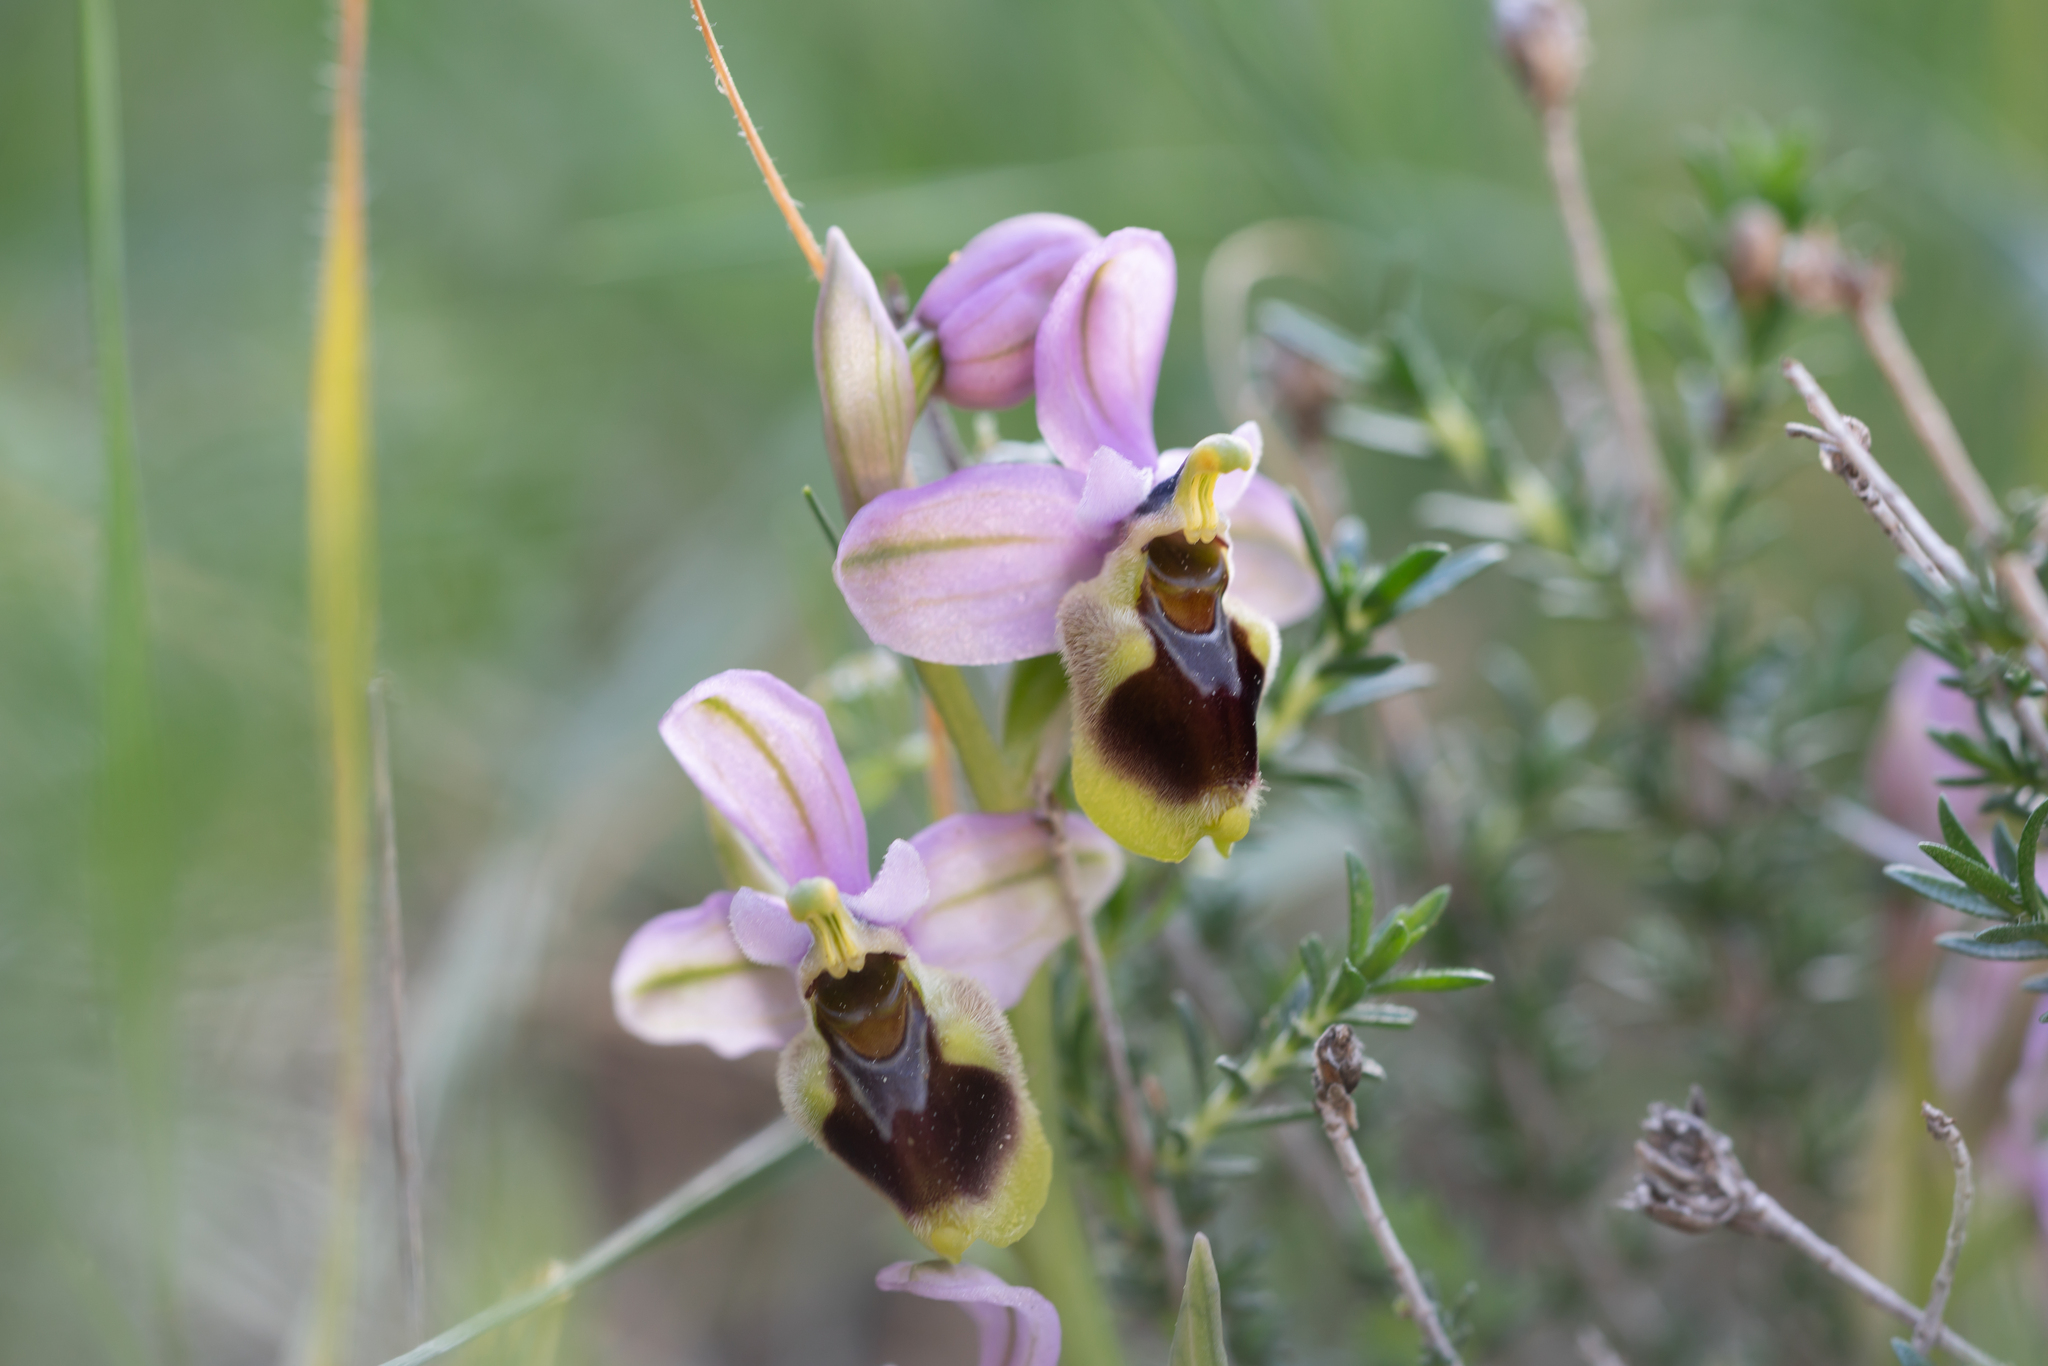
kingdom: Plantae
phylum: Tracheophyta
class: Liliopsida
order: Asparagales
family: Orchidaceae
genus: Ophrys
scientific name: Ophrys tenthredinifera
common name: Sawfly orchid
